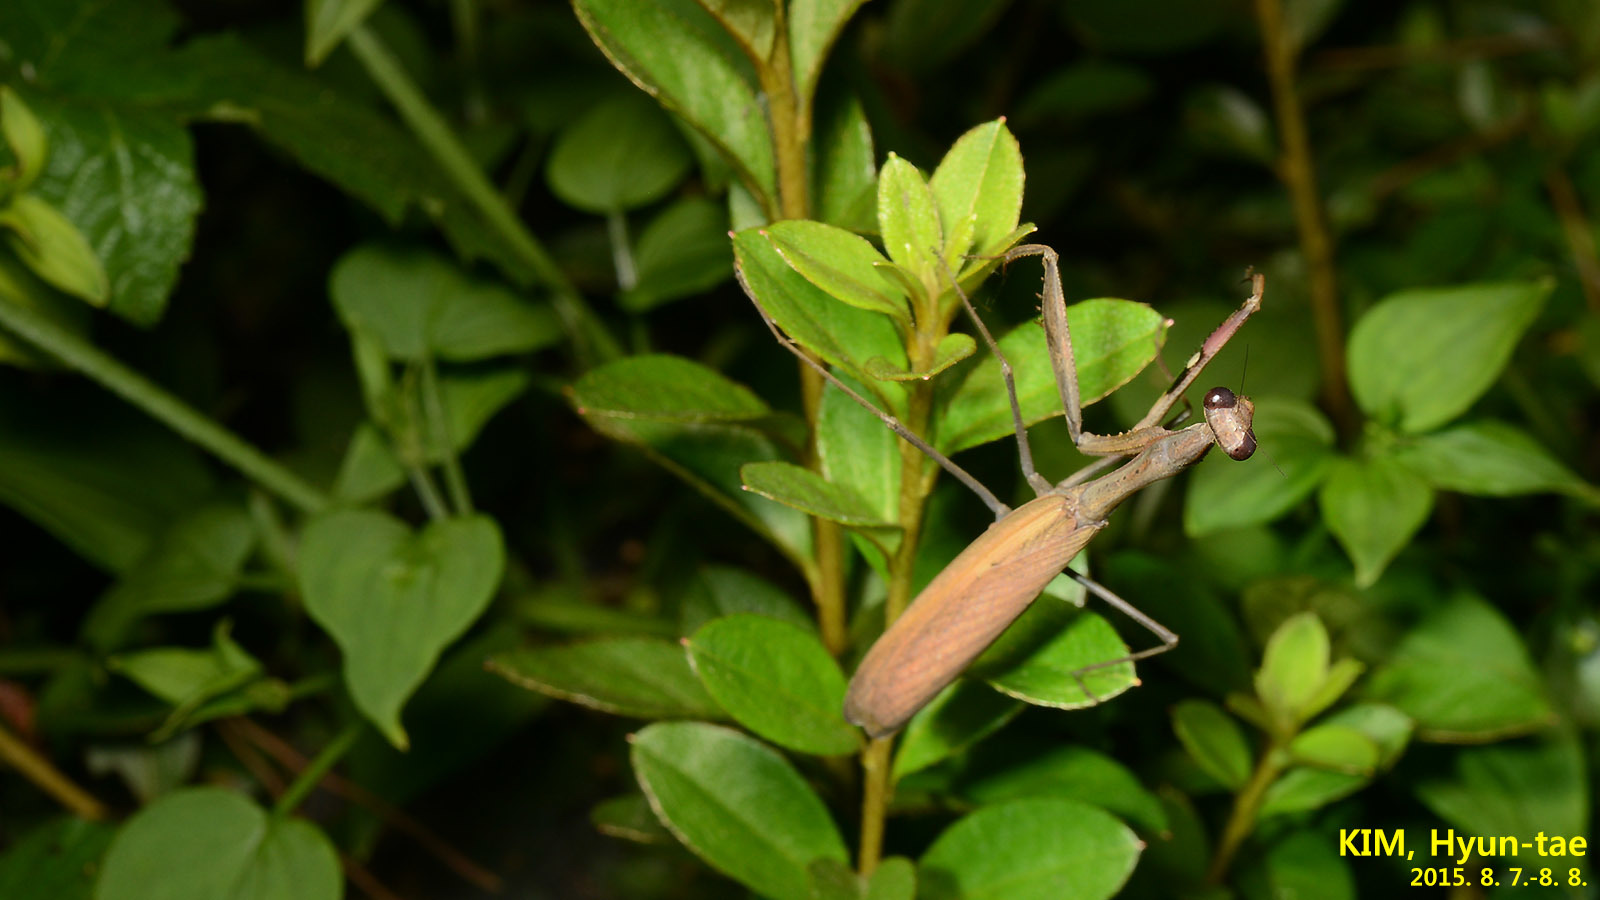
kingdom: Animalia
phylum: Arthropoda
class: Insecta
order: Mantodea
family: Mantidae
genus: Statilia
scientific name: Statilia maculata
